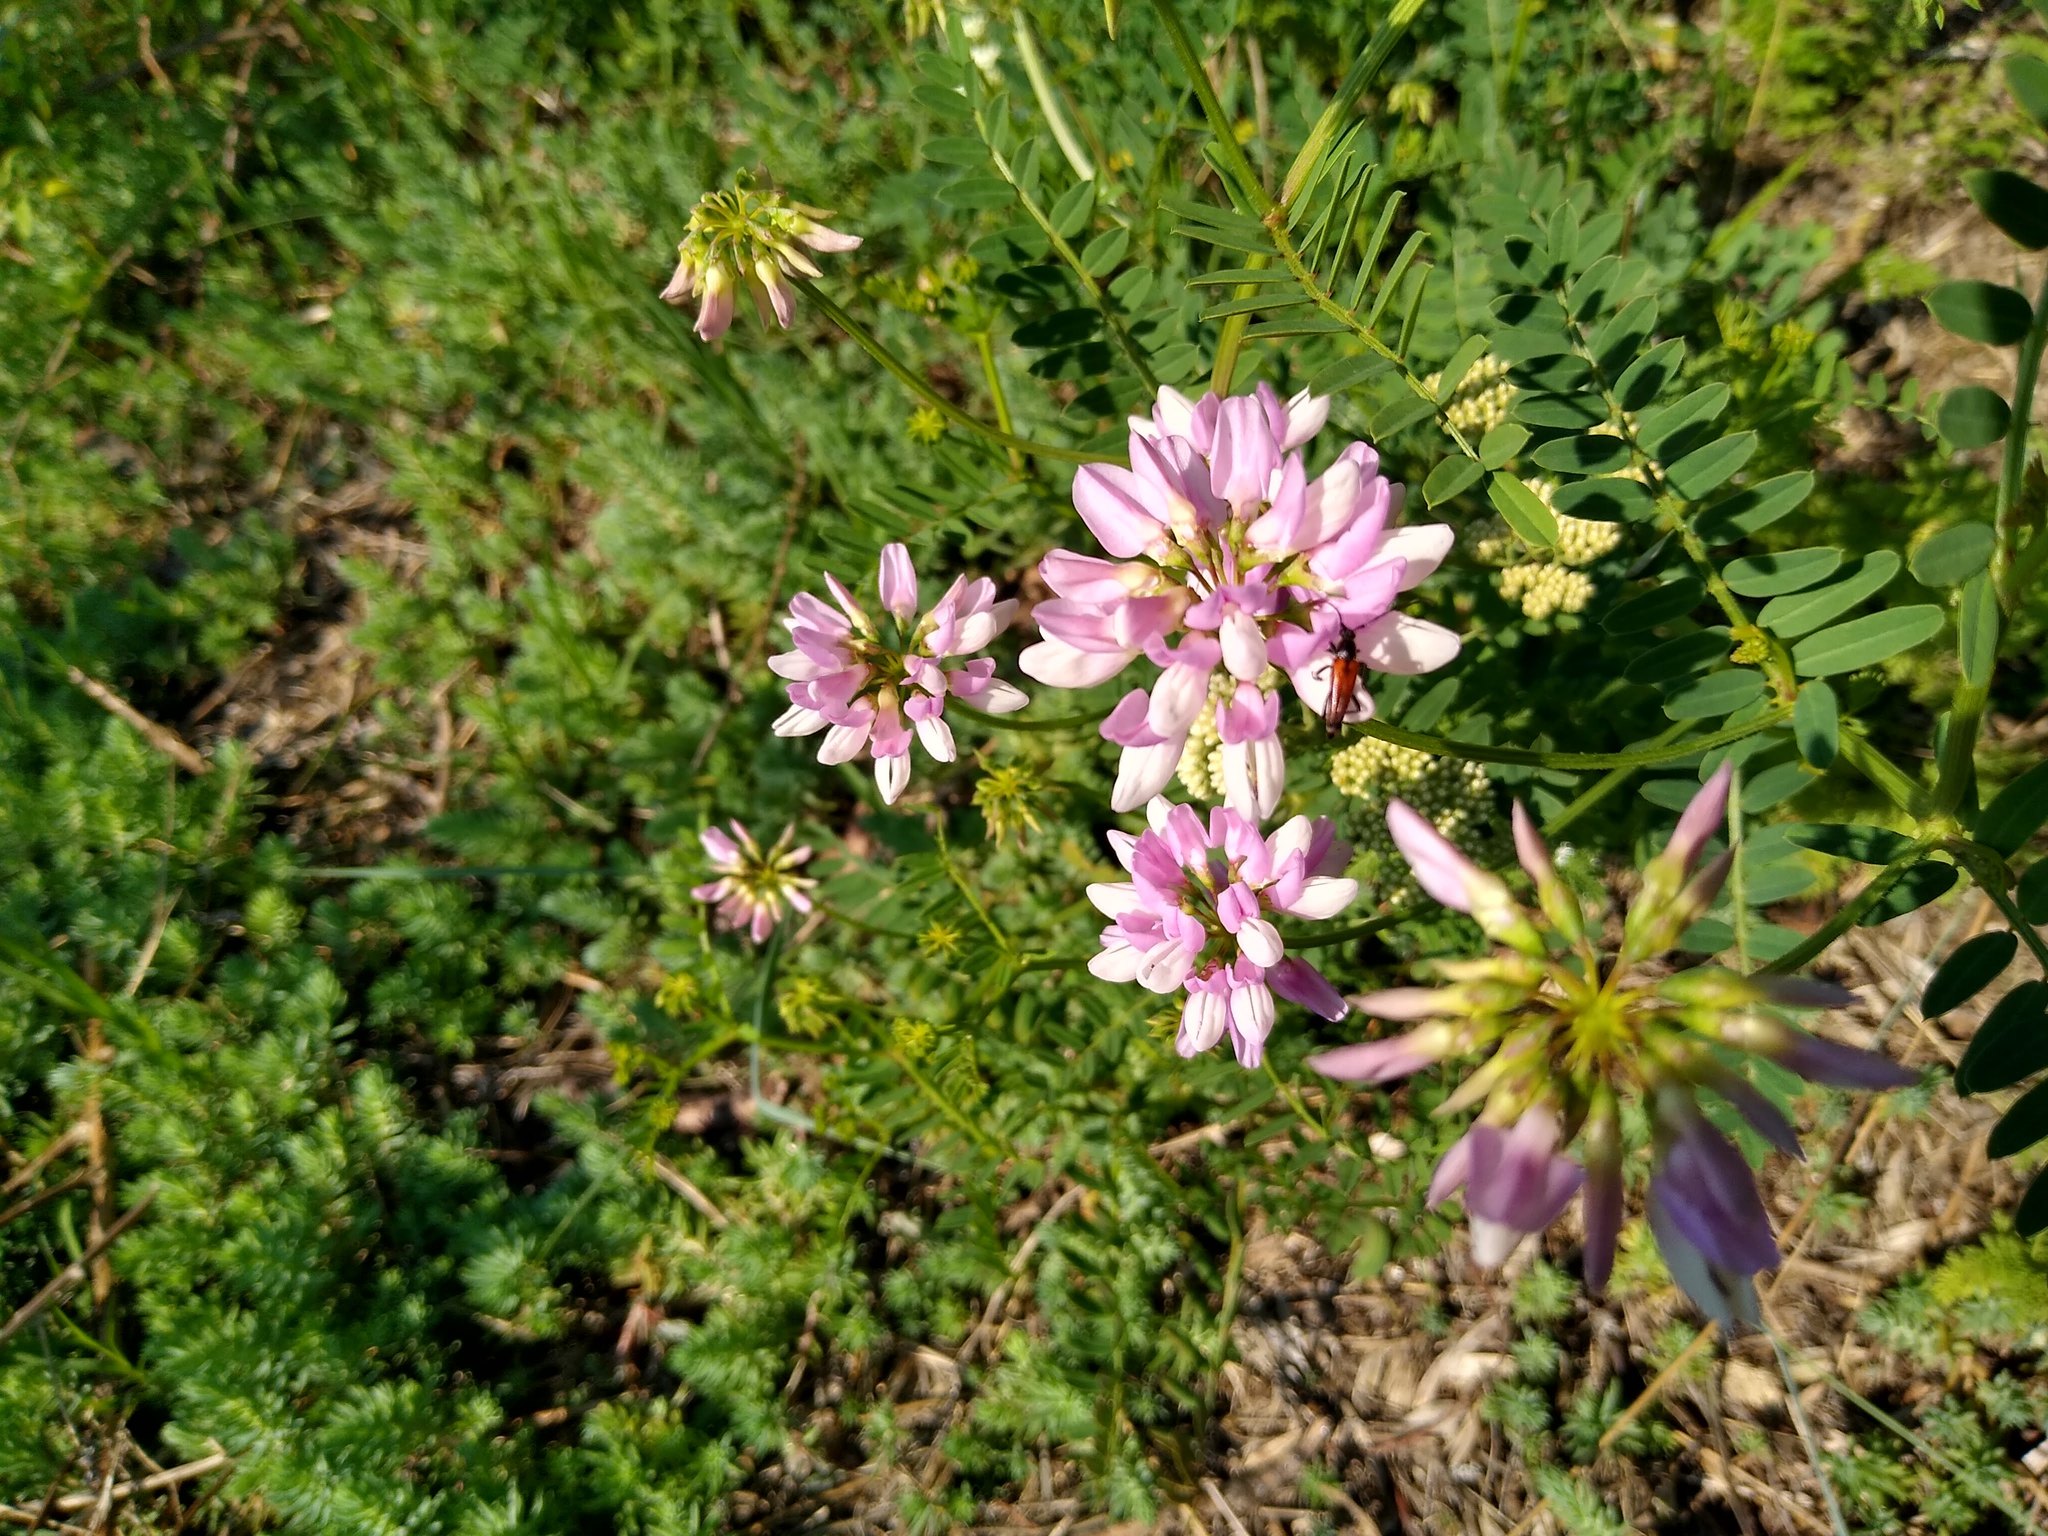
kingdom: Plantae
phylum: Tracheophyta
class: Magnoliopsida
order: Fabales
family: Fabaceae
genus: Coronilla
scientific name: Coronilla varia
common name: Crownvetch
